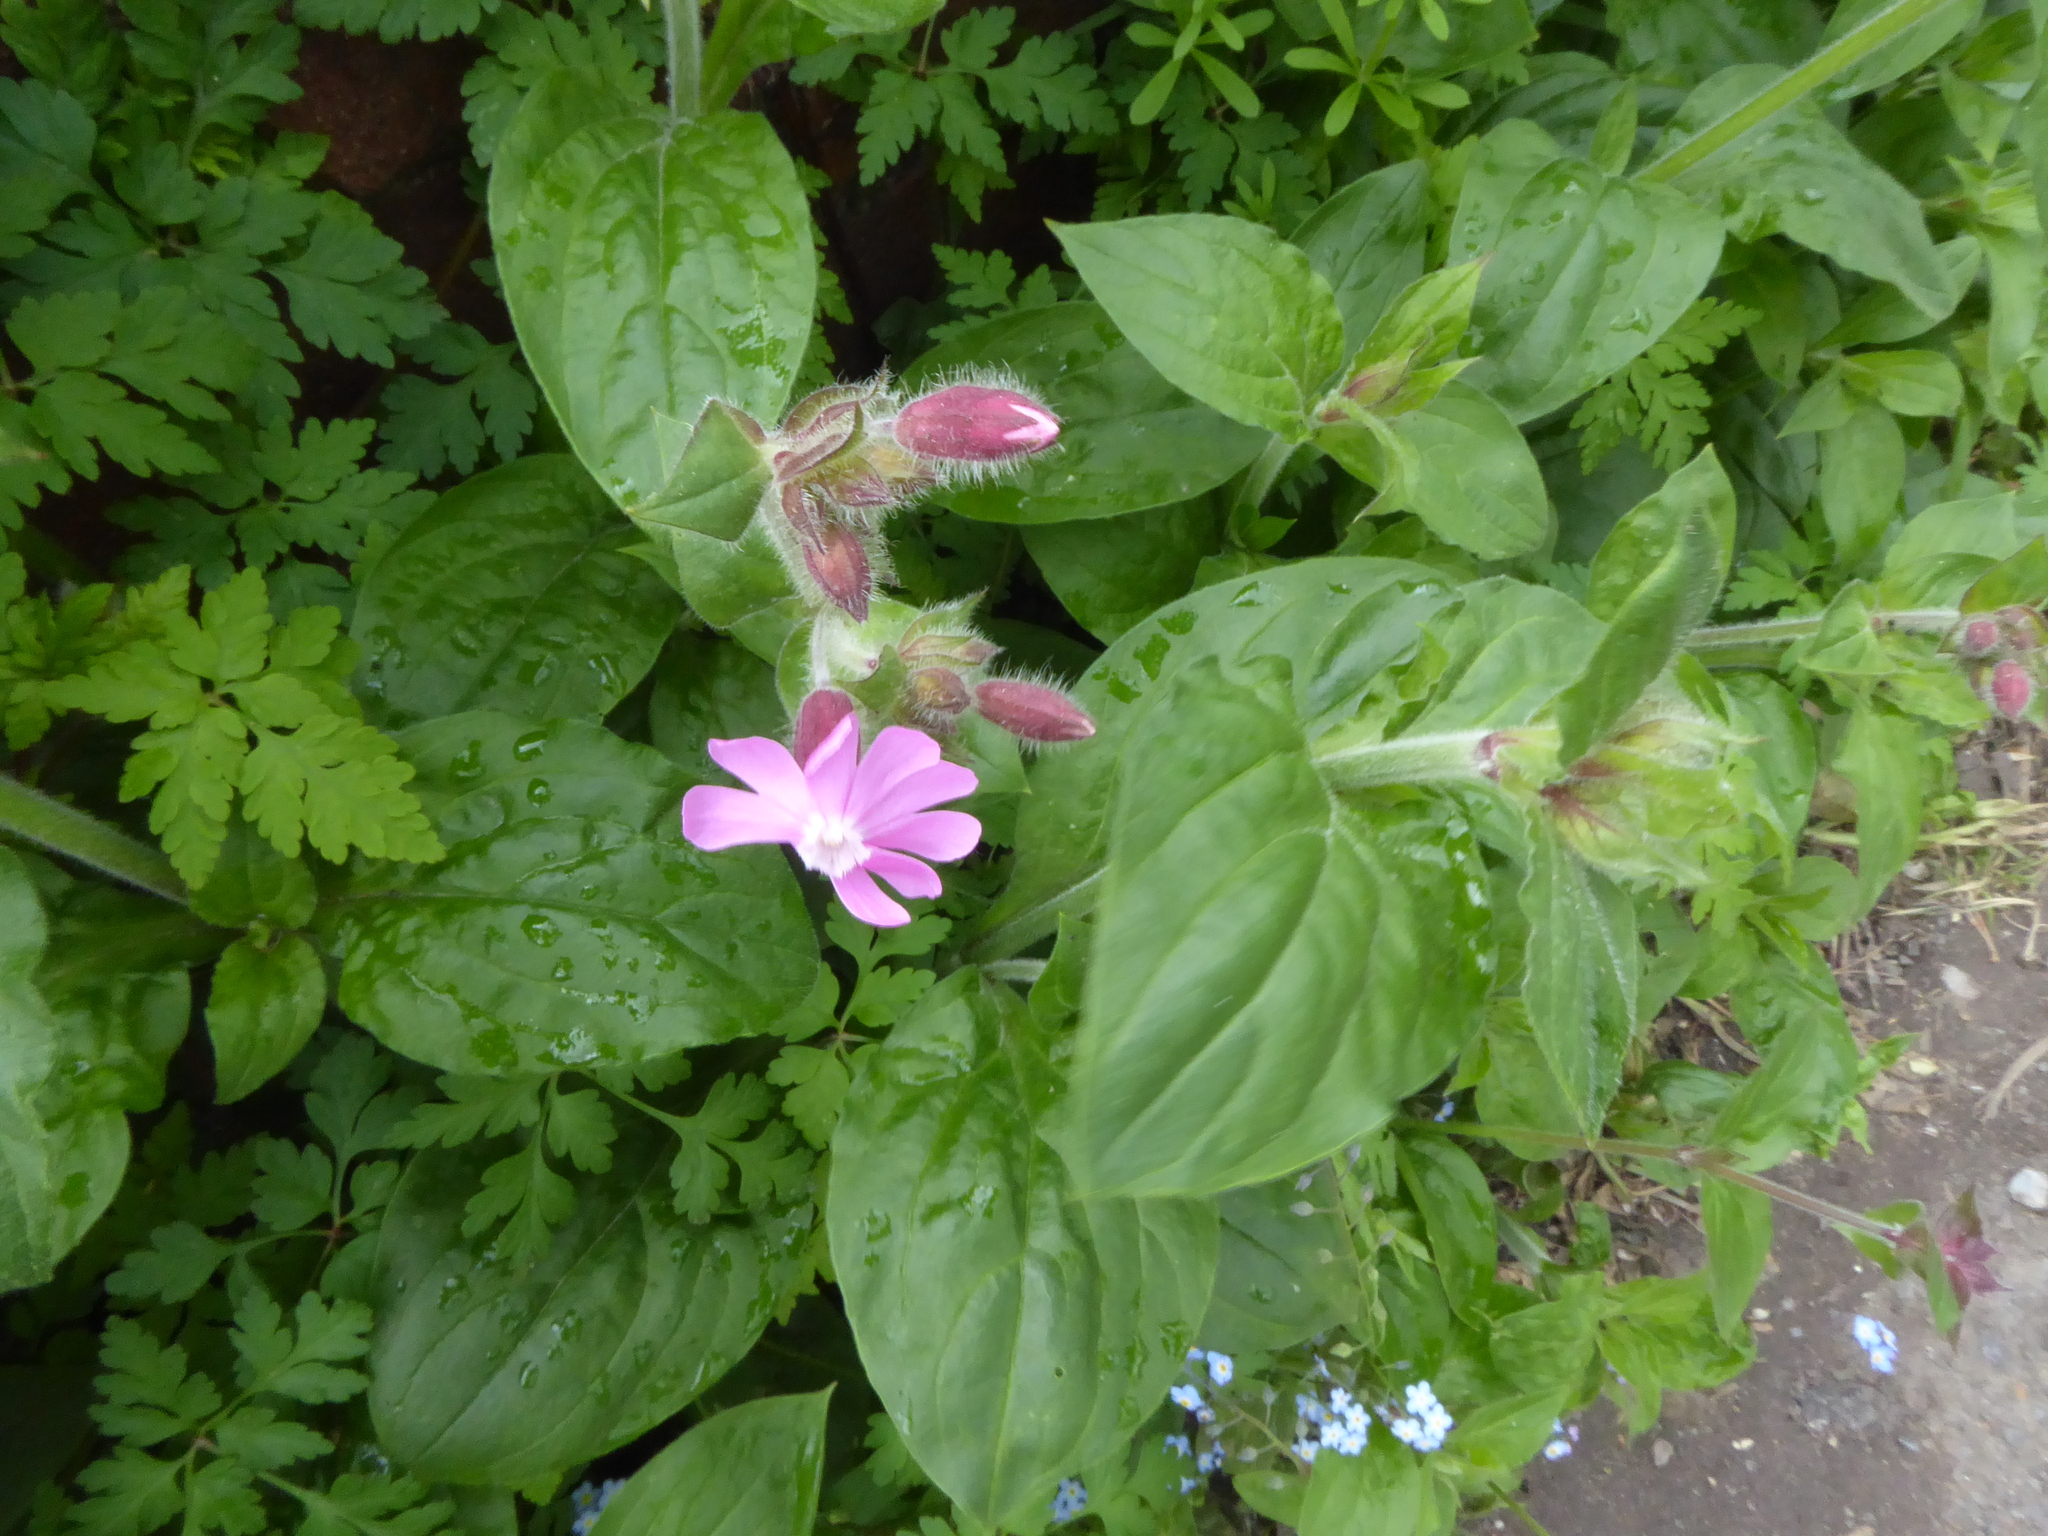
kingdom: Plantae
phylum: Tracheophyta
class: Magnoliopsida
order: Caryophyllales
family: Caryophyllaceae
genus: Silene
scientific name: Silene dioica
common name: Red campion
